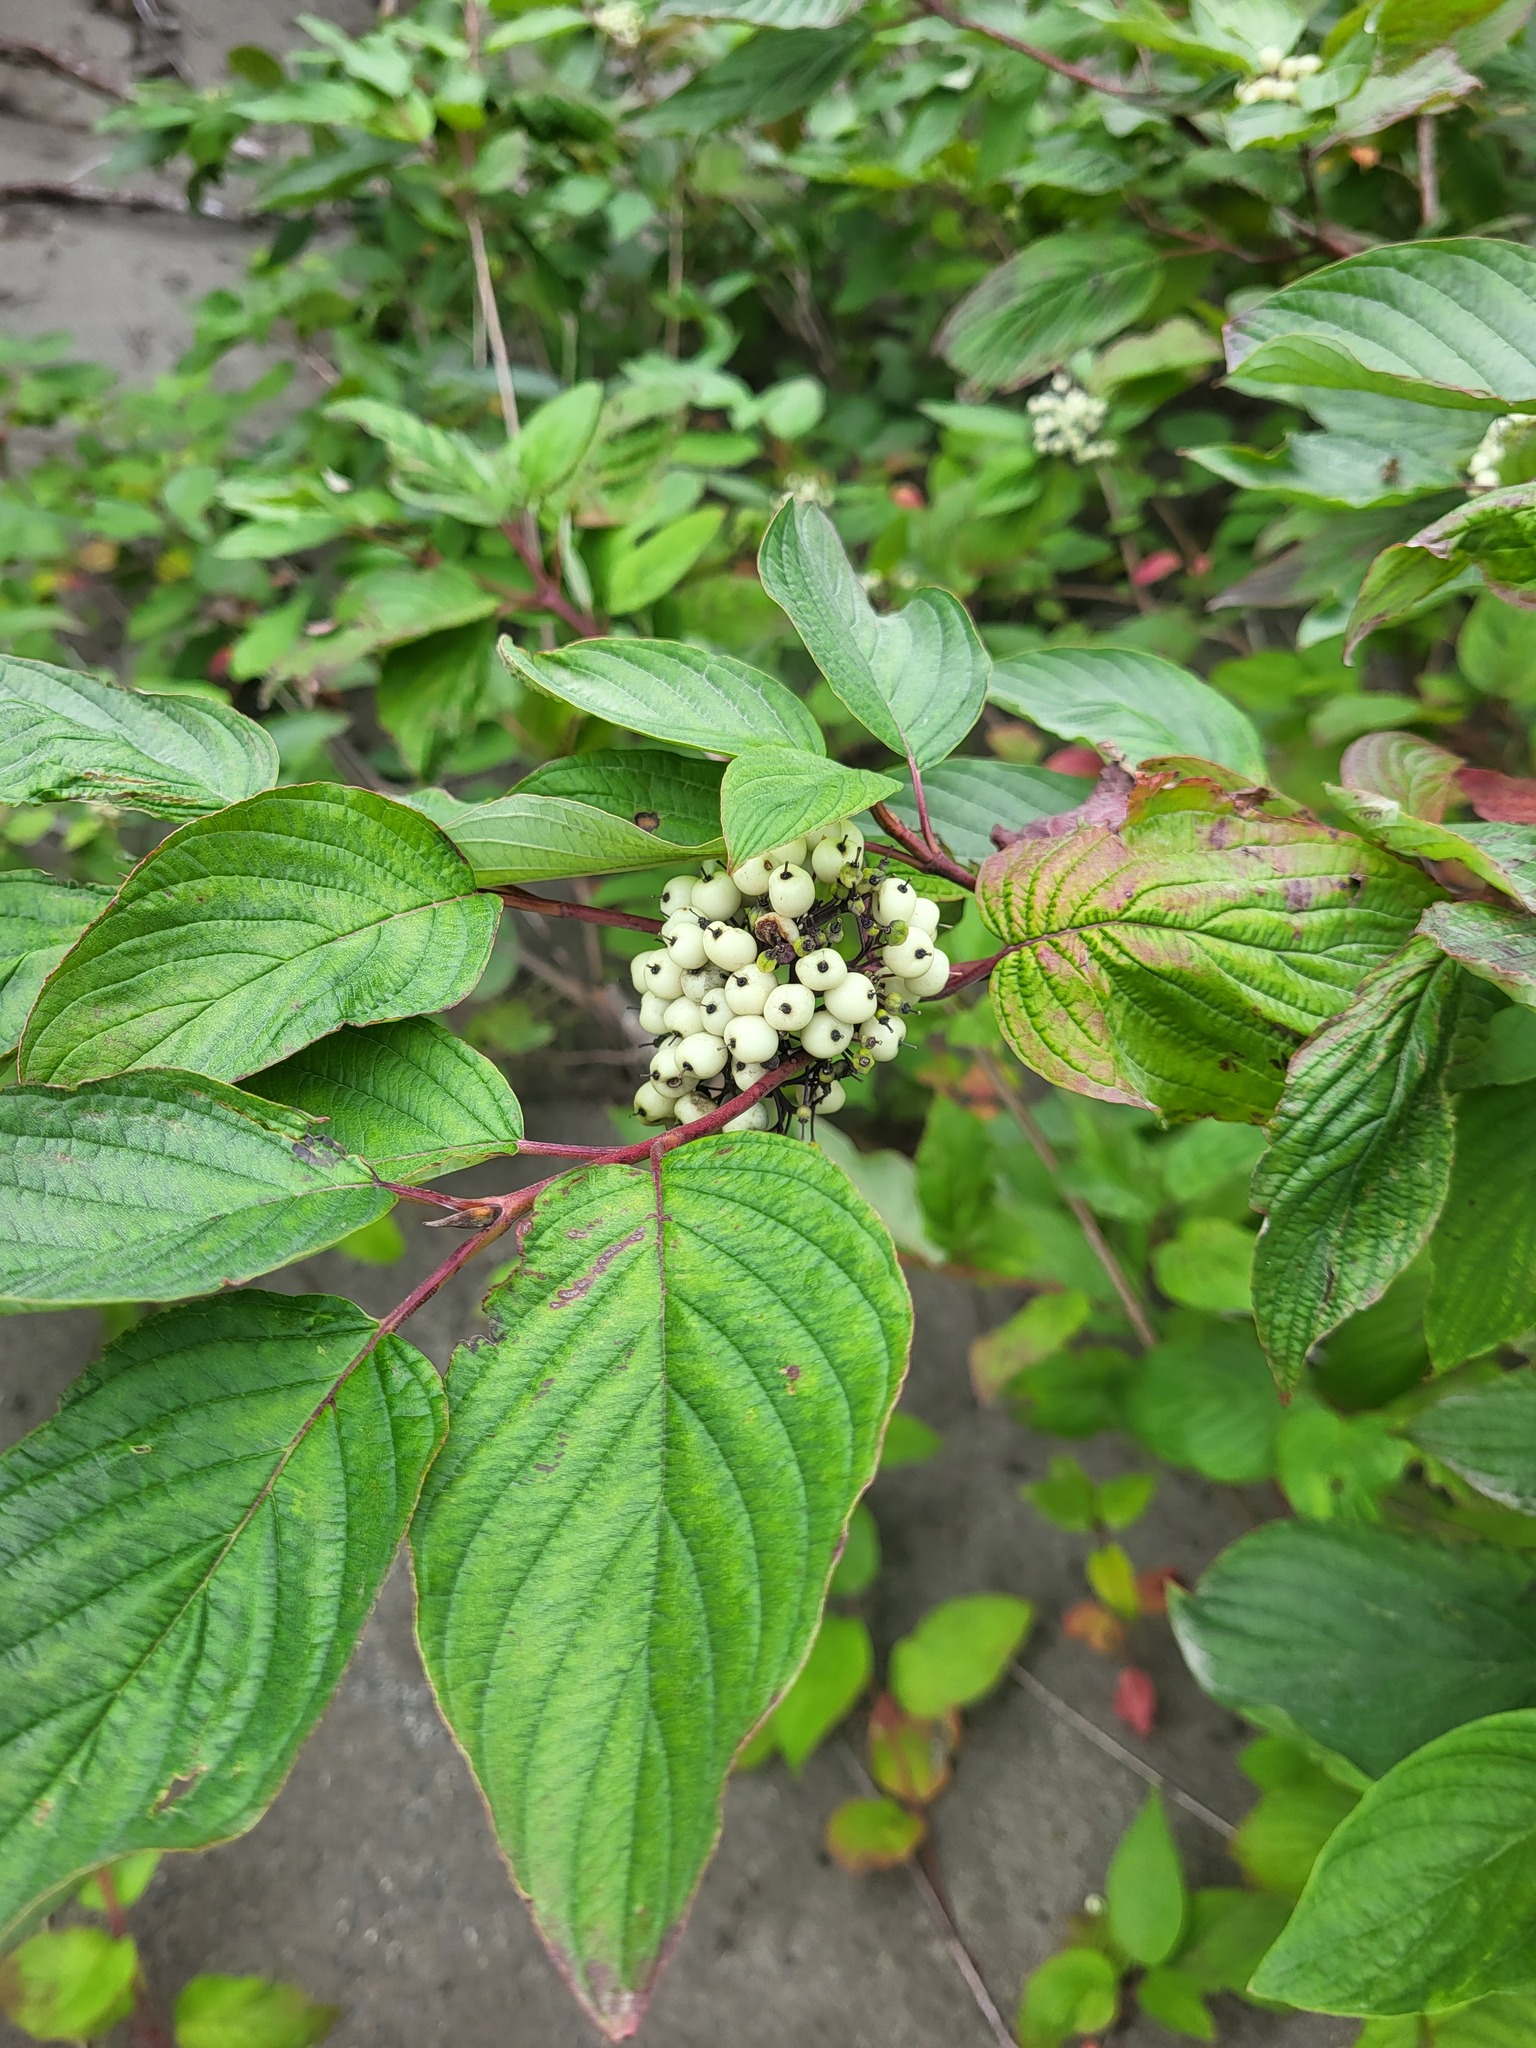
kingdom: Plantae
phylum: Tracheophyta
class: Magnoliopsida
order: Cornales
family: Cornaceae
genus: Cornus
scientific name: Cornus sericea
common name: Red-osier dogwood
